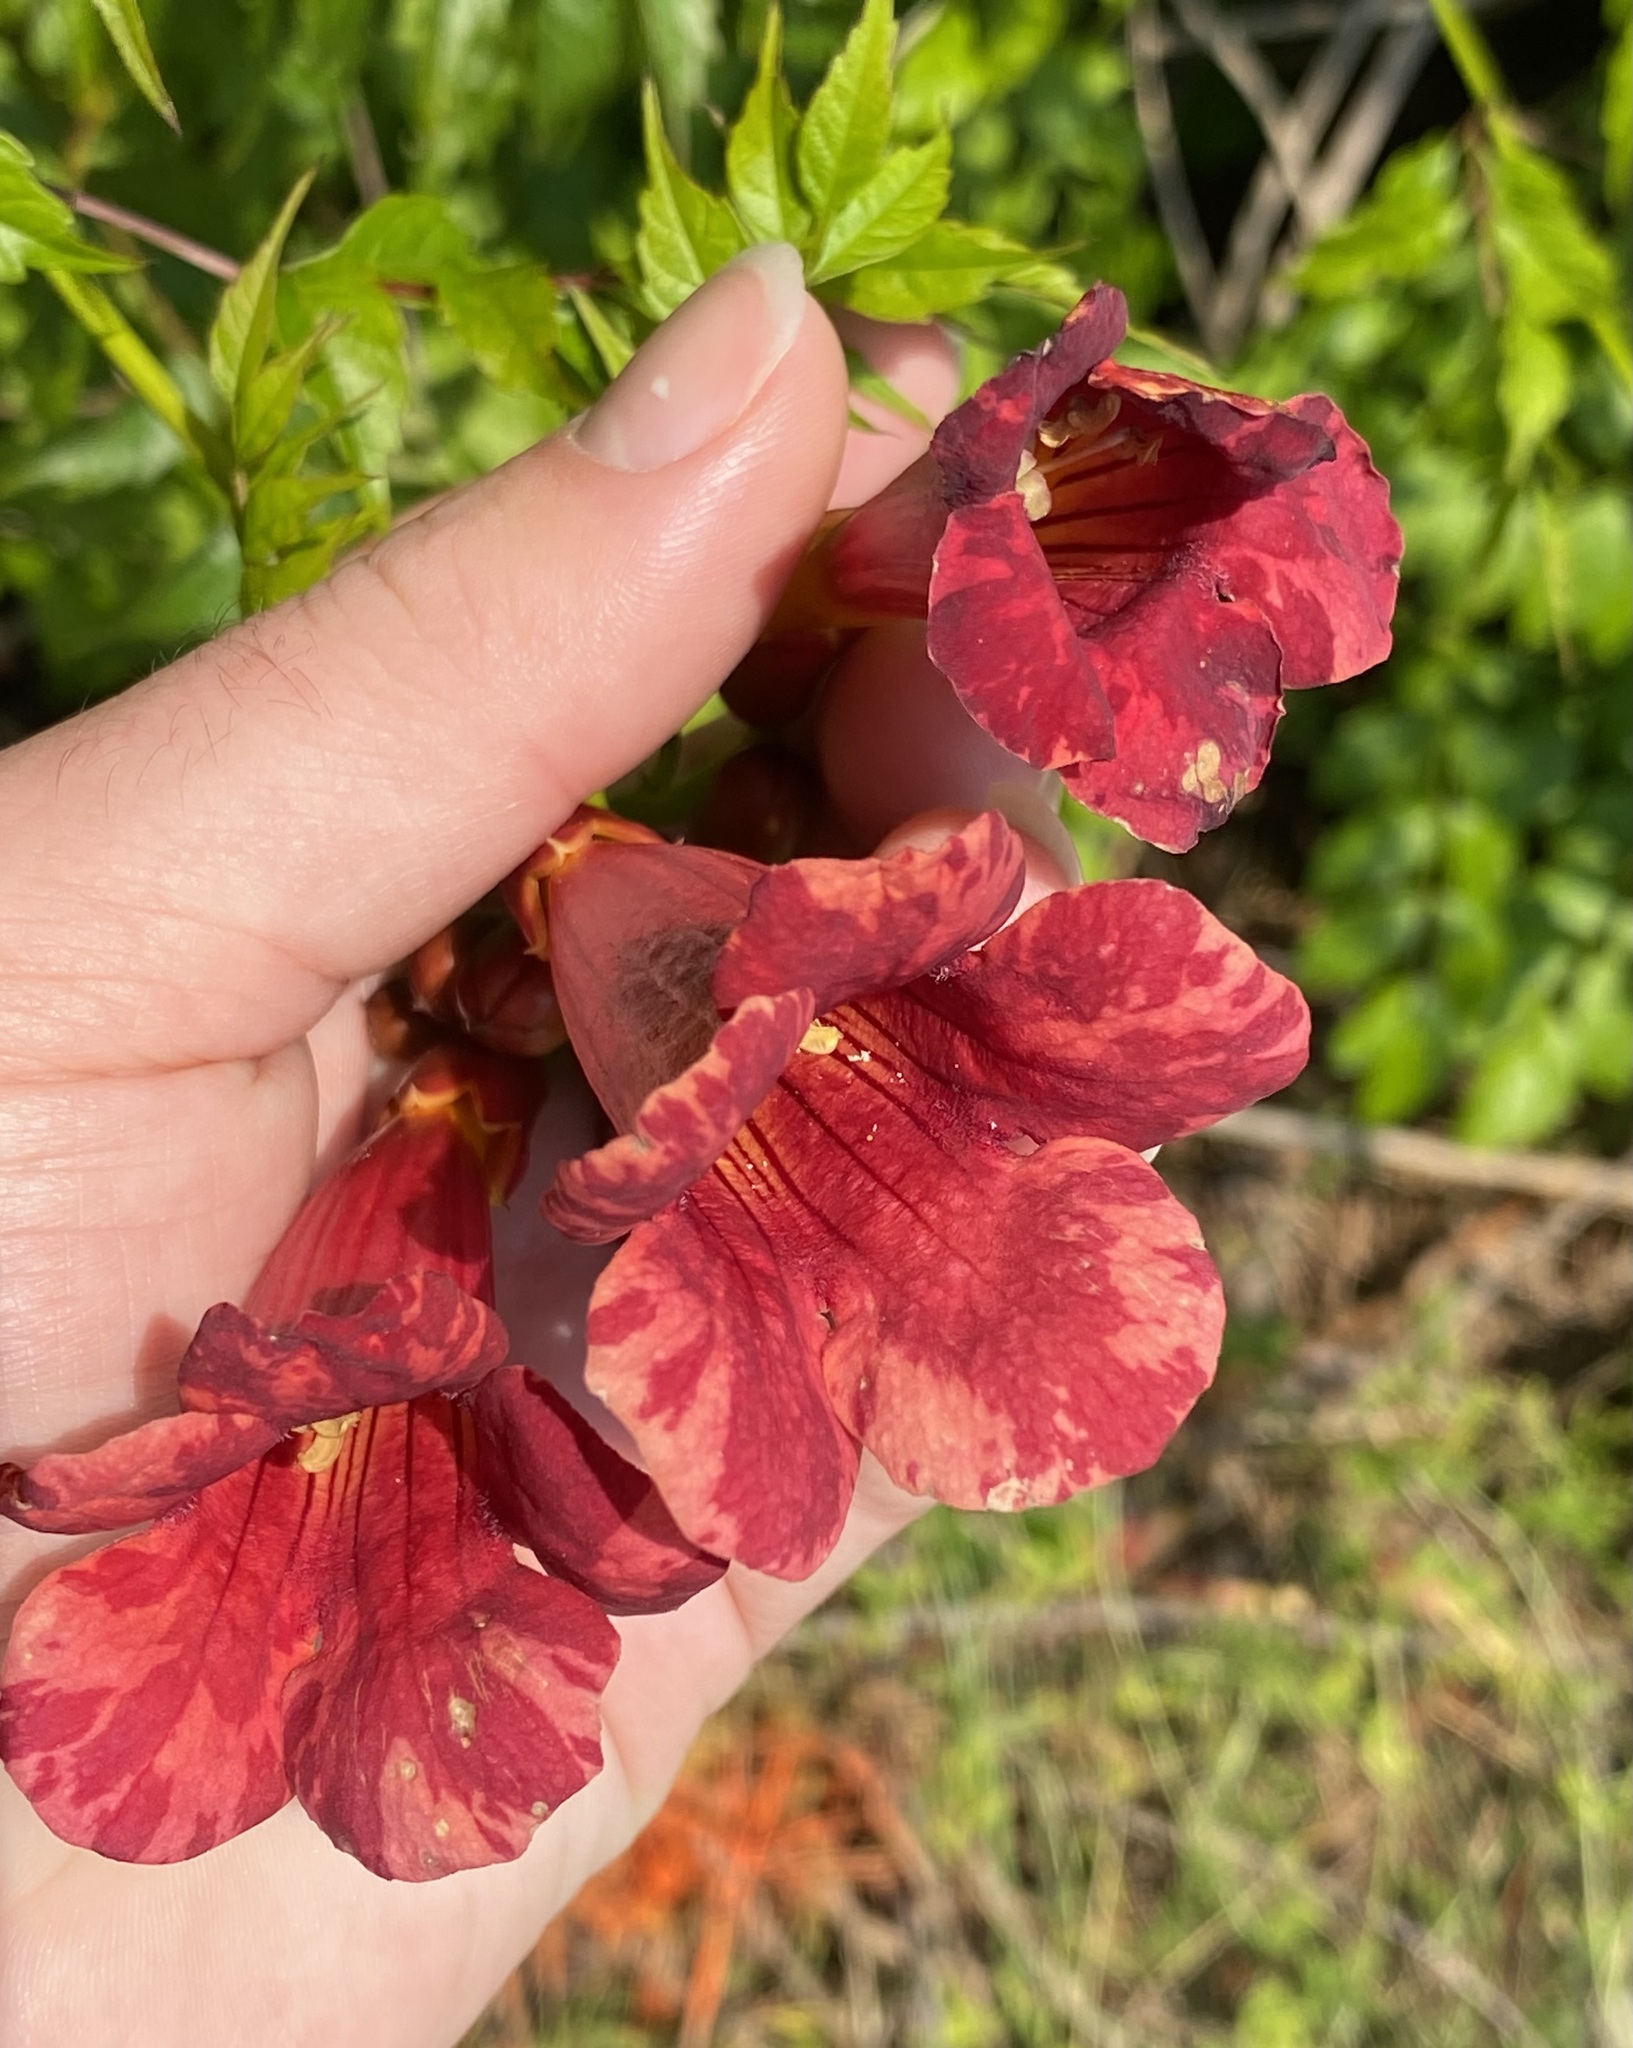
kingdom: Plantae
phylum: Tracheophyta
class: Magnoliopsida
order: Lamiales
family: Bignoniaceae
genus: Campsis
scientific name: Campsis radicans
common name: Trumpet-creeper
